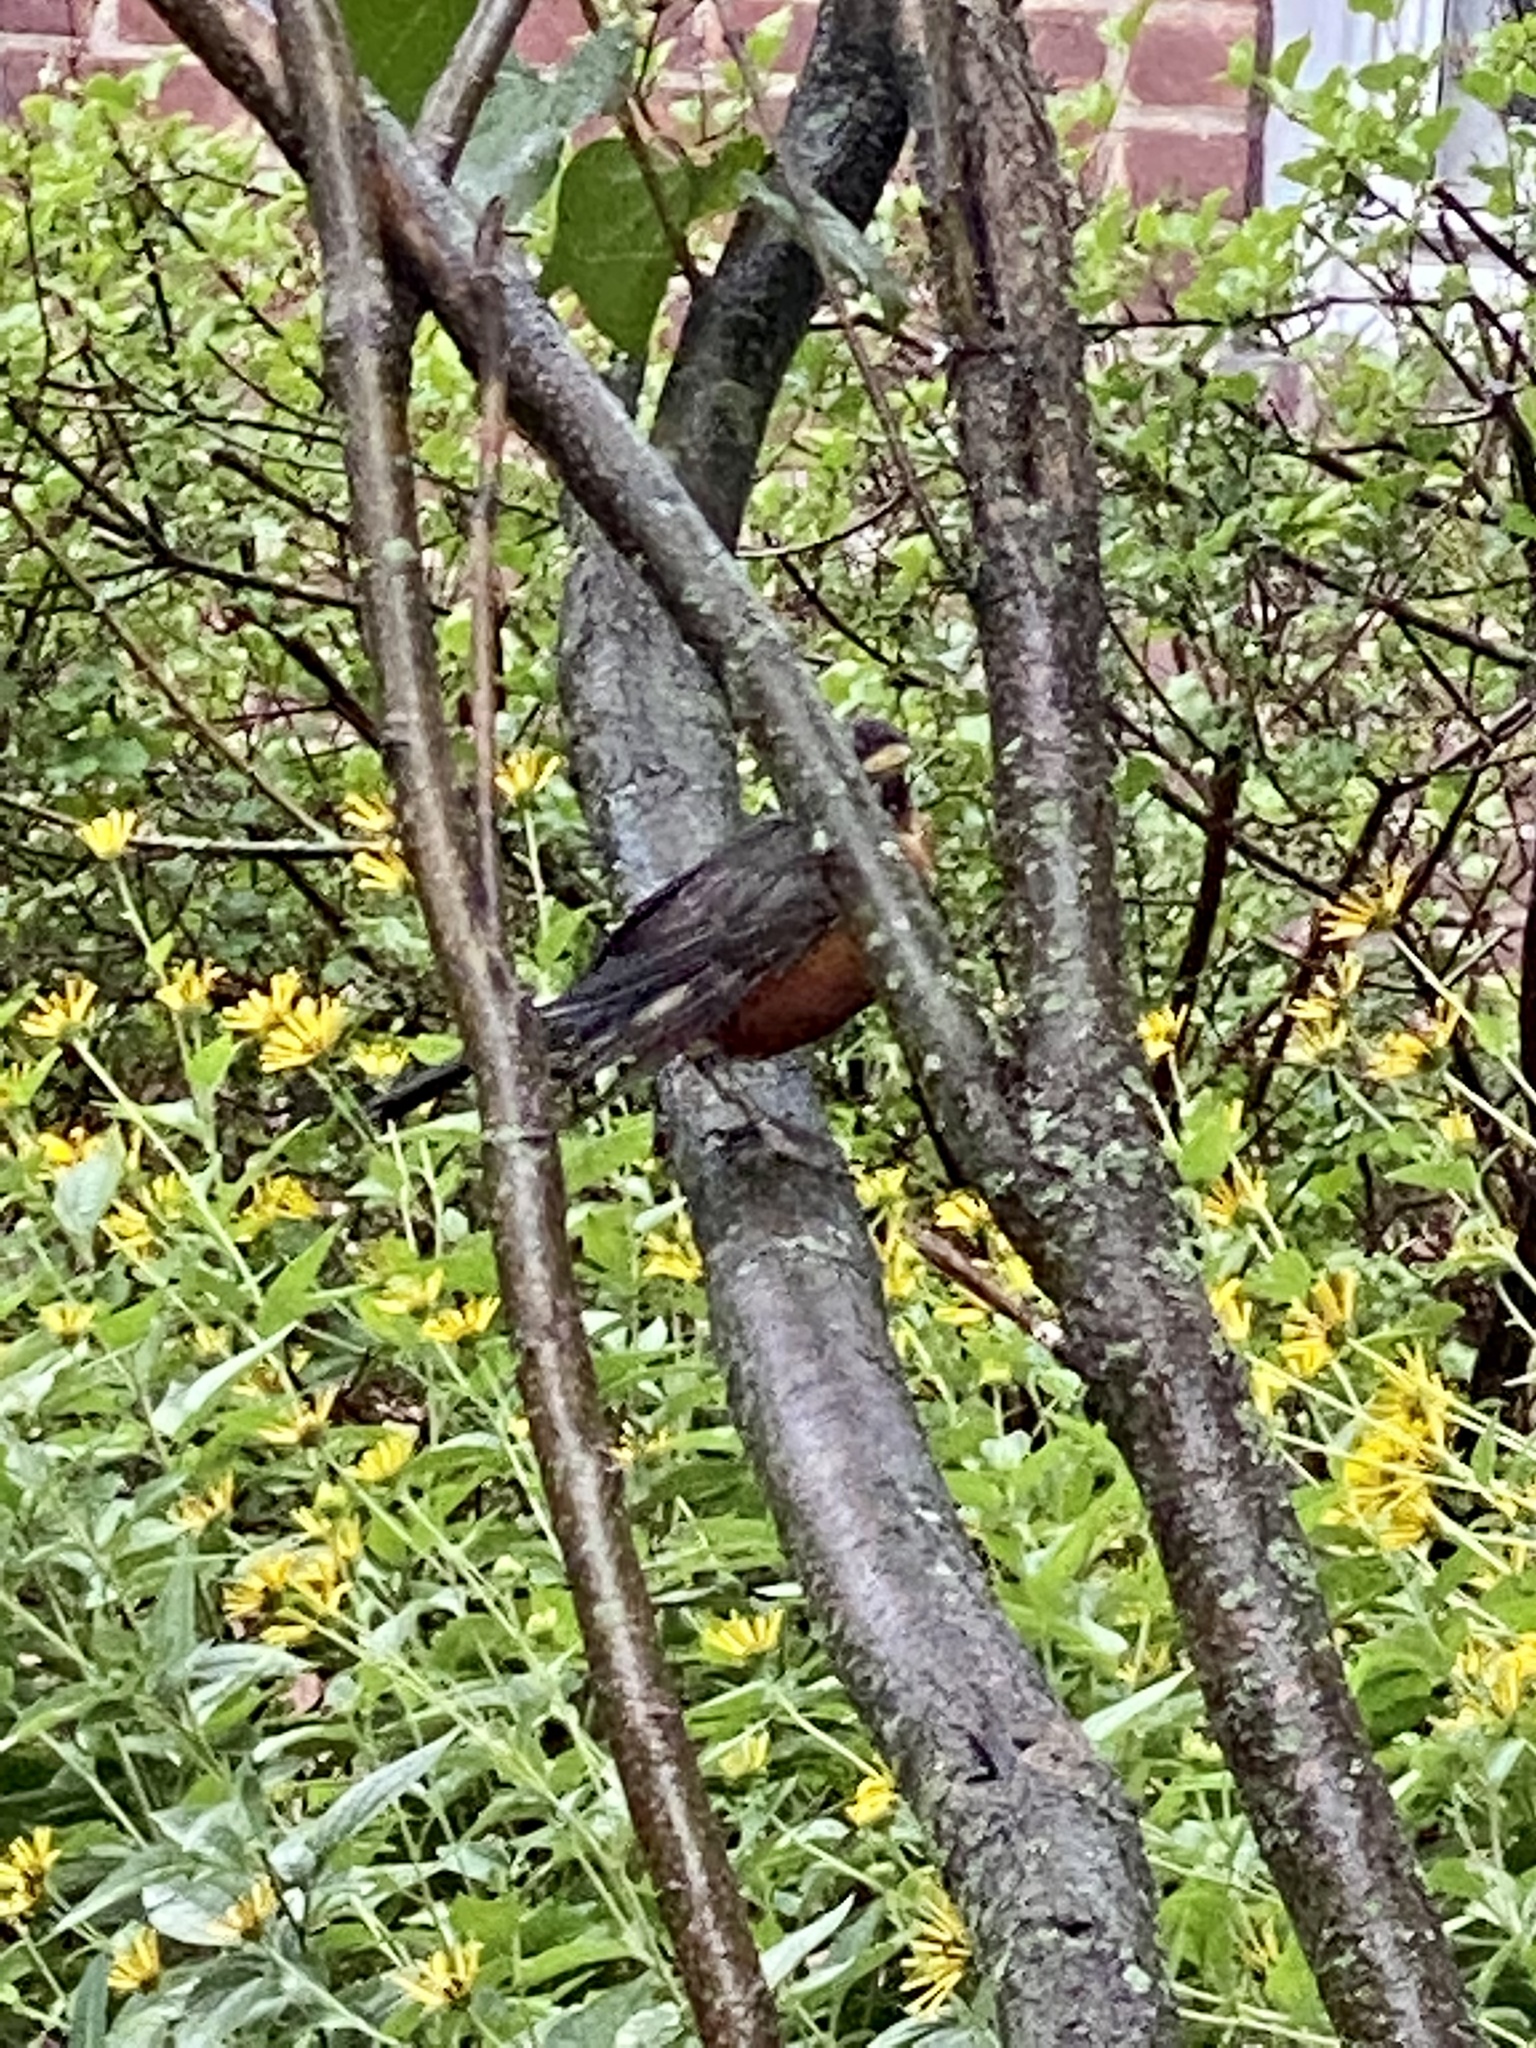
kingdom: Animalia
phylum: Chordata
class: Aves
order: Passeriformes
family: Turdidae
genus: Turdus
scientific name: Turdus migratorius
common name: American robin
